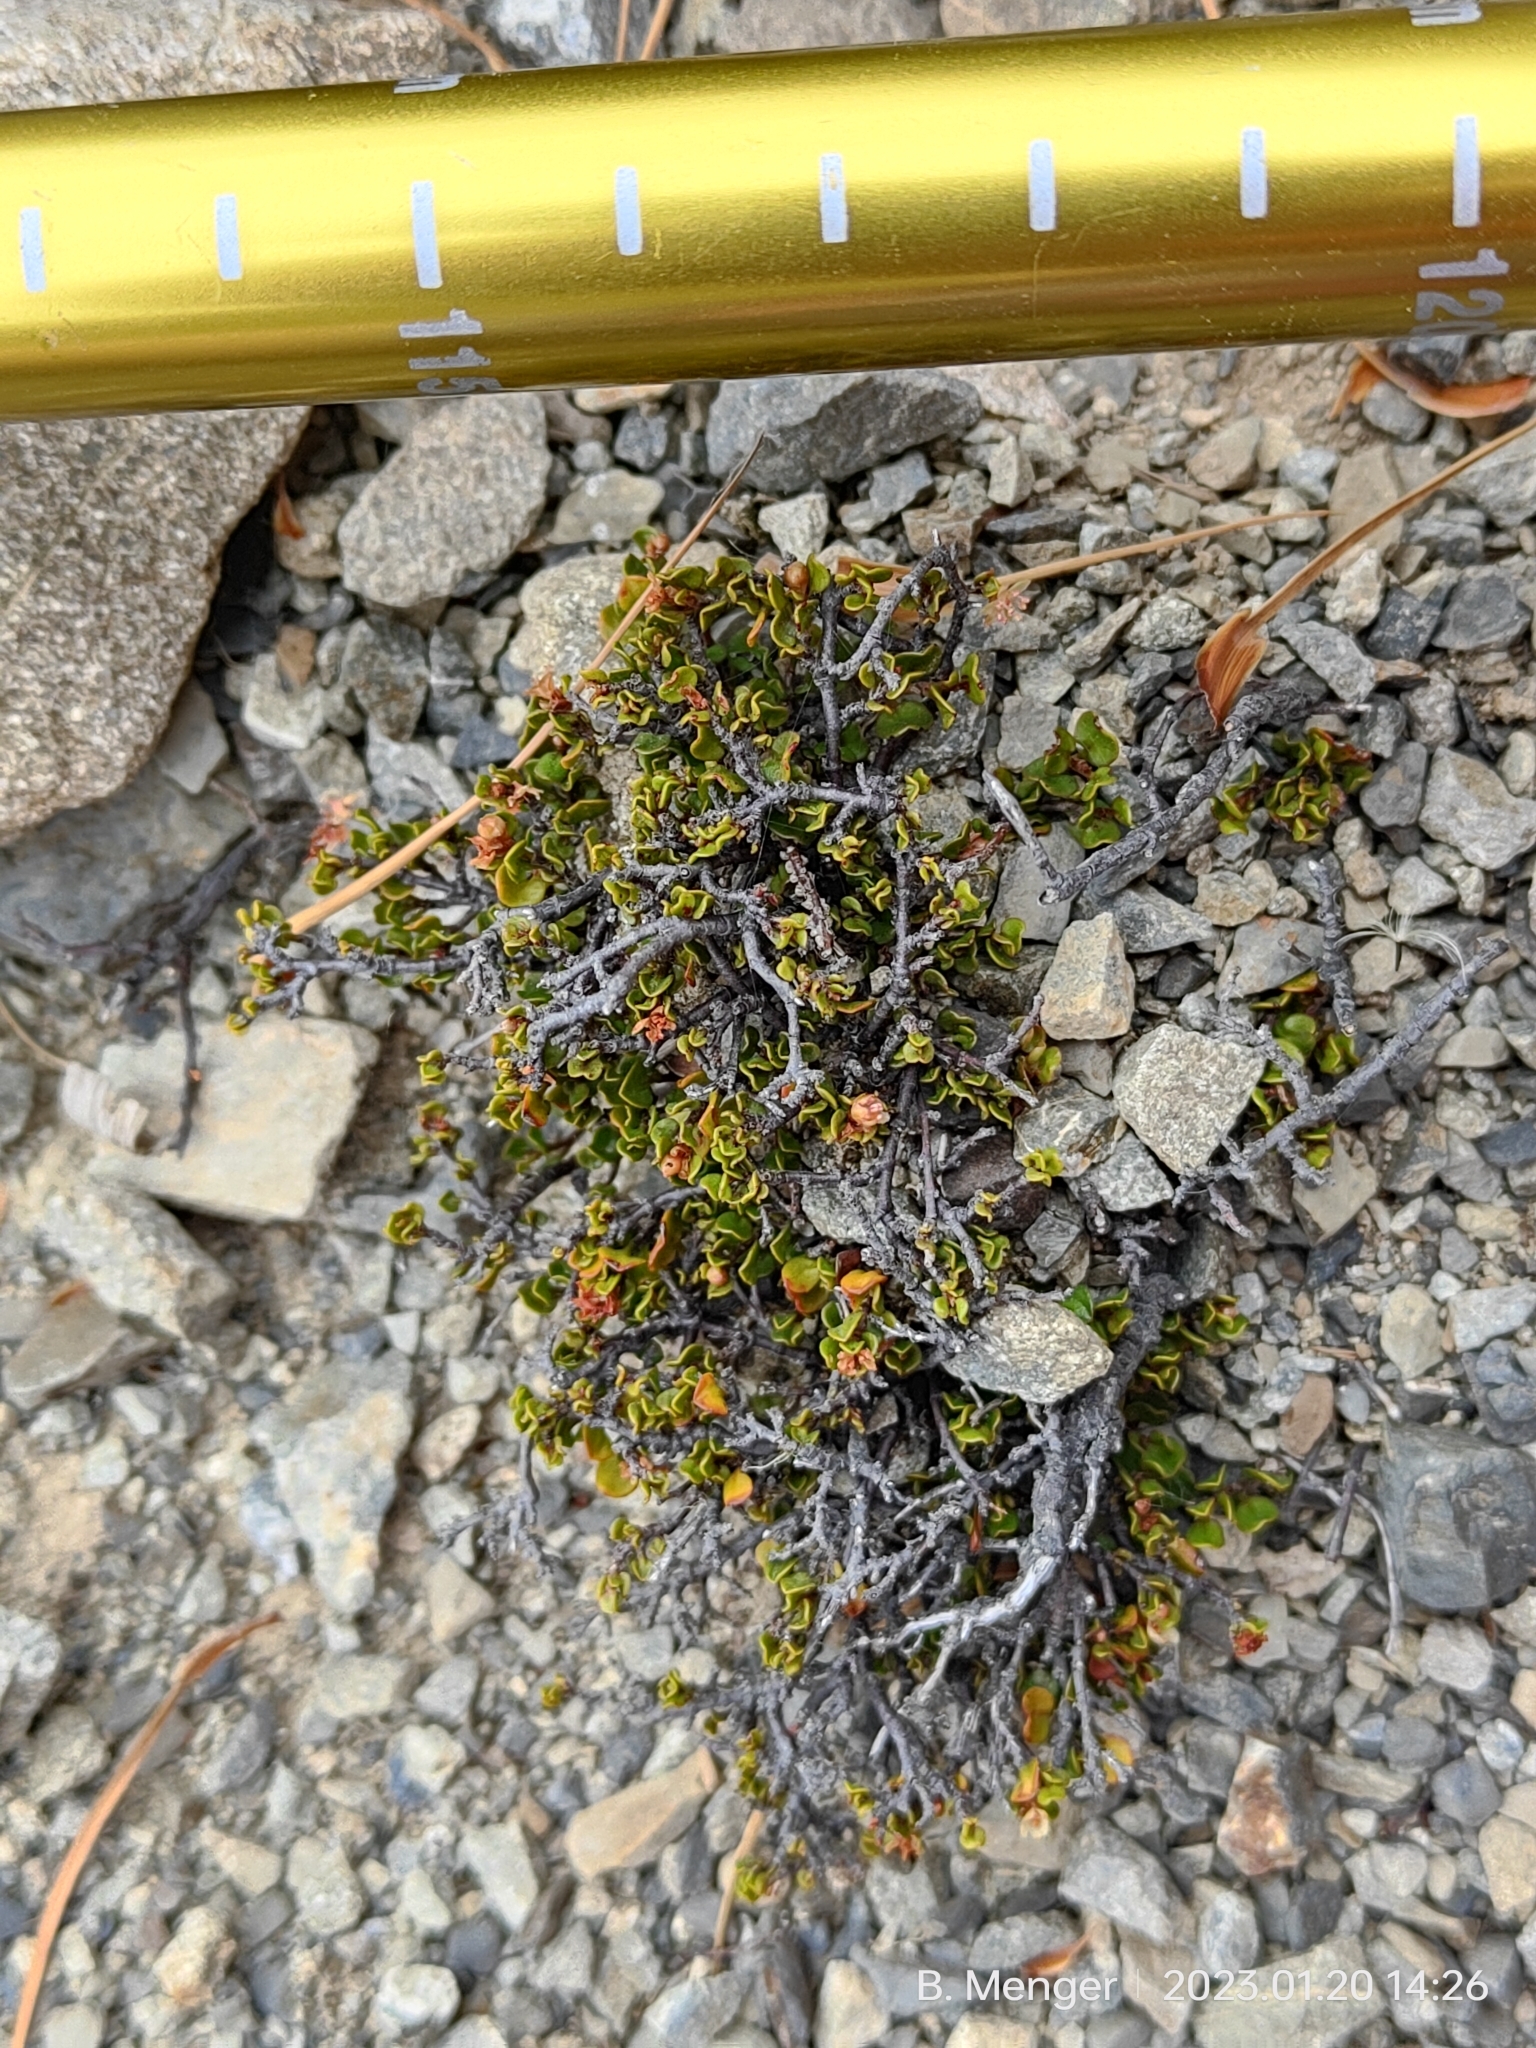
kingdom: Plantae
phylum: Tracheophyta
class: Magnoliopsida
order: Caryophyllales
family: Polygonaceae
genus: Muehlenbeckia
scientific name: Muehlenbeckia axillaris
